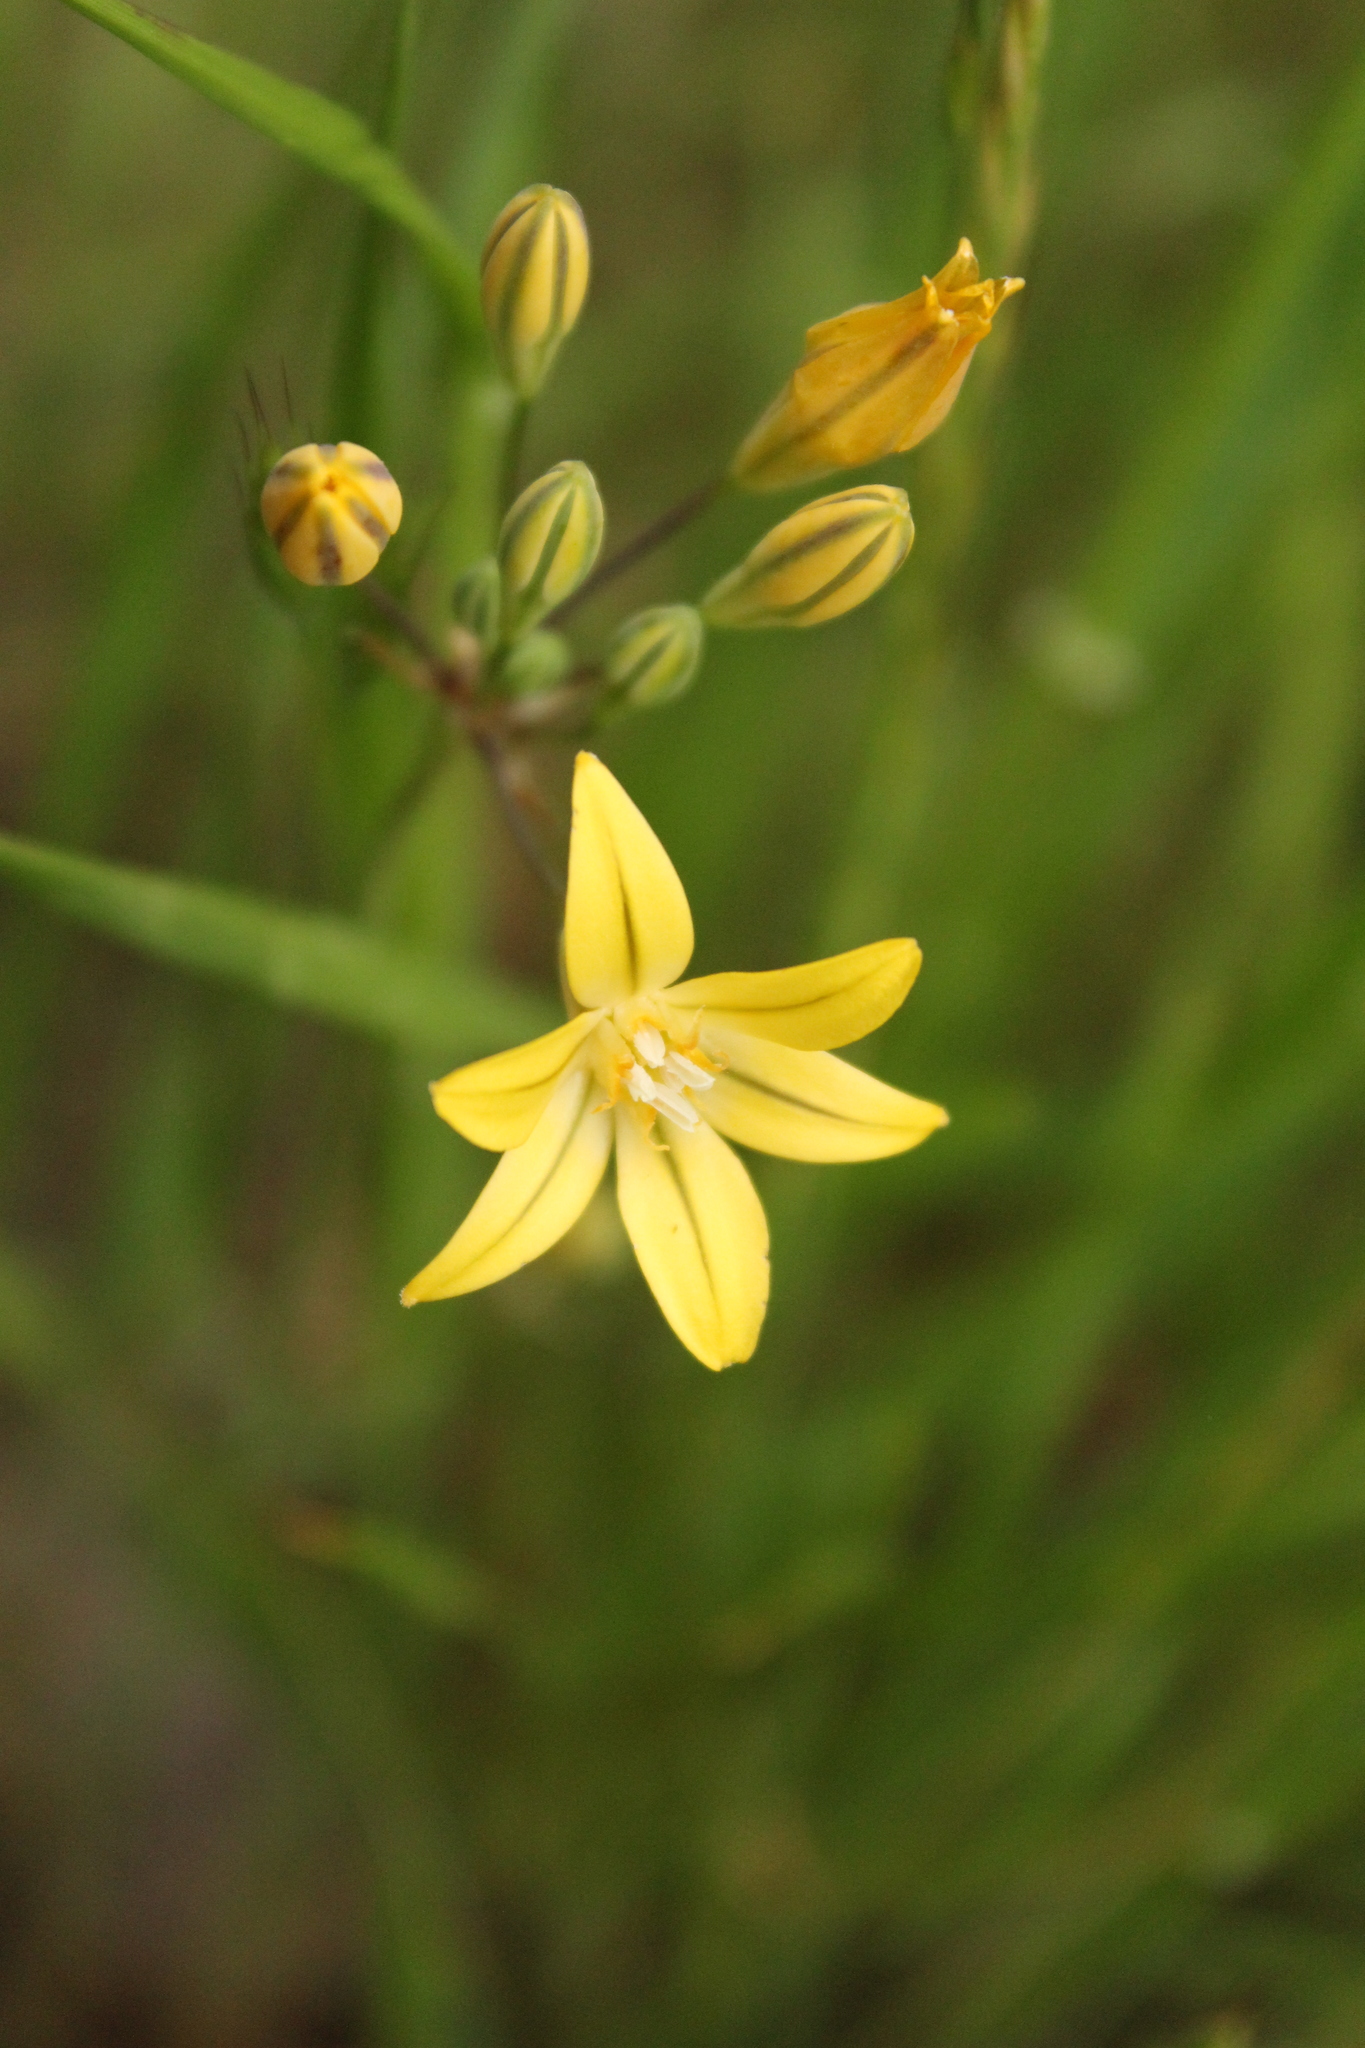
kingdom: Plantae
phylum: Tracheophyta
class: Liliopsida
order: Asparagales
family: Asparagaceae
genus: Triteleia
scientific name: Triteleia ixioides
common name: Yellow-brodiaea
